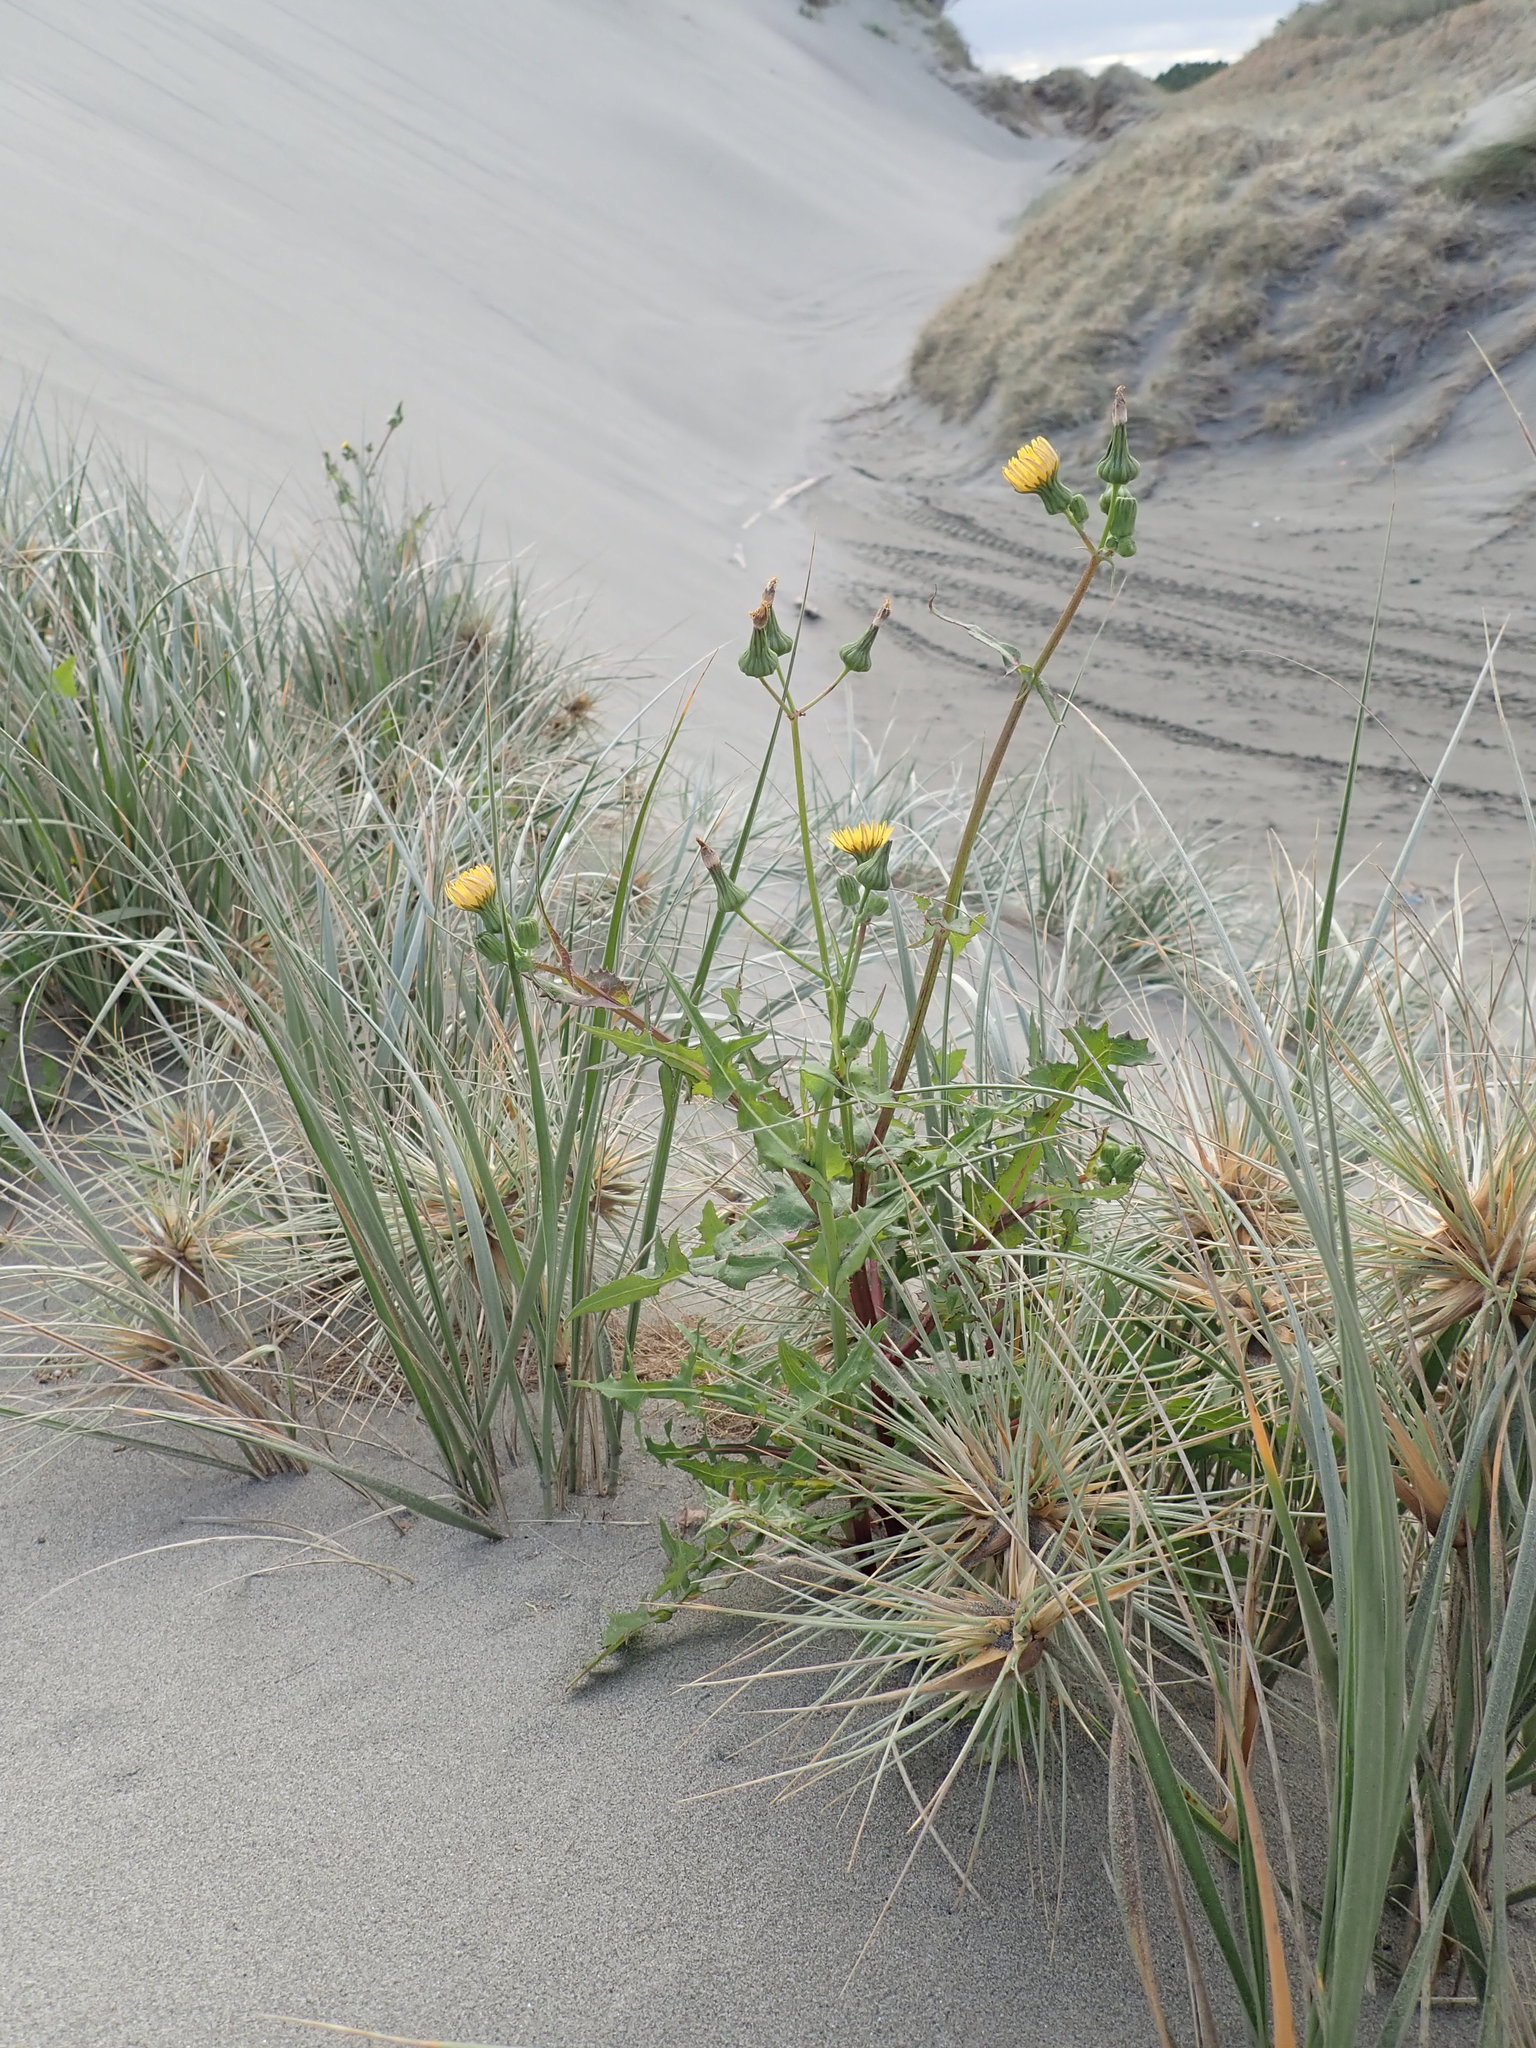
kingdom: Plantae
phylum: Tracheophyta
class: Magnoliopsida
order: Asterales
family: Asteraceae
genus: Sonchus
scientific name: Sonchus oleraceus
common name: Common sowthistle
